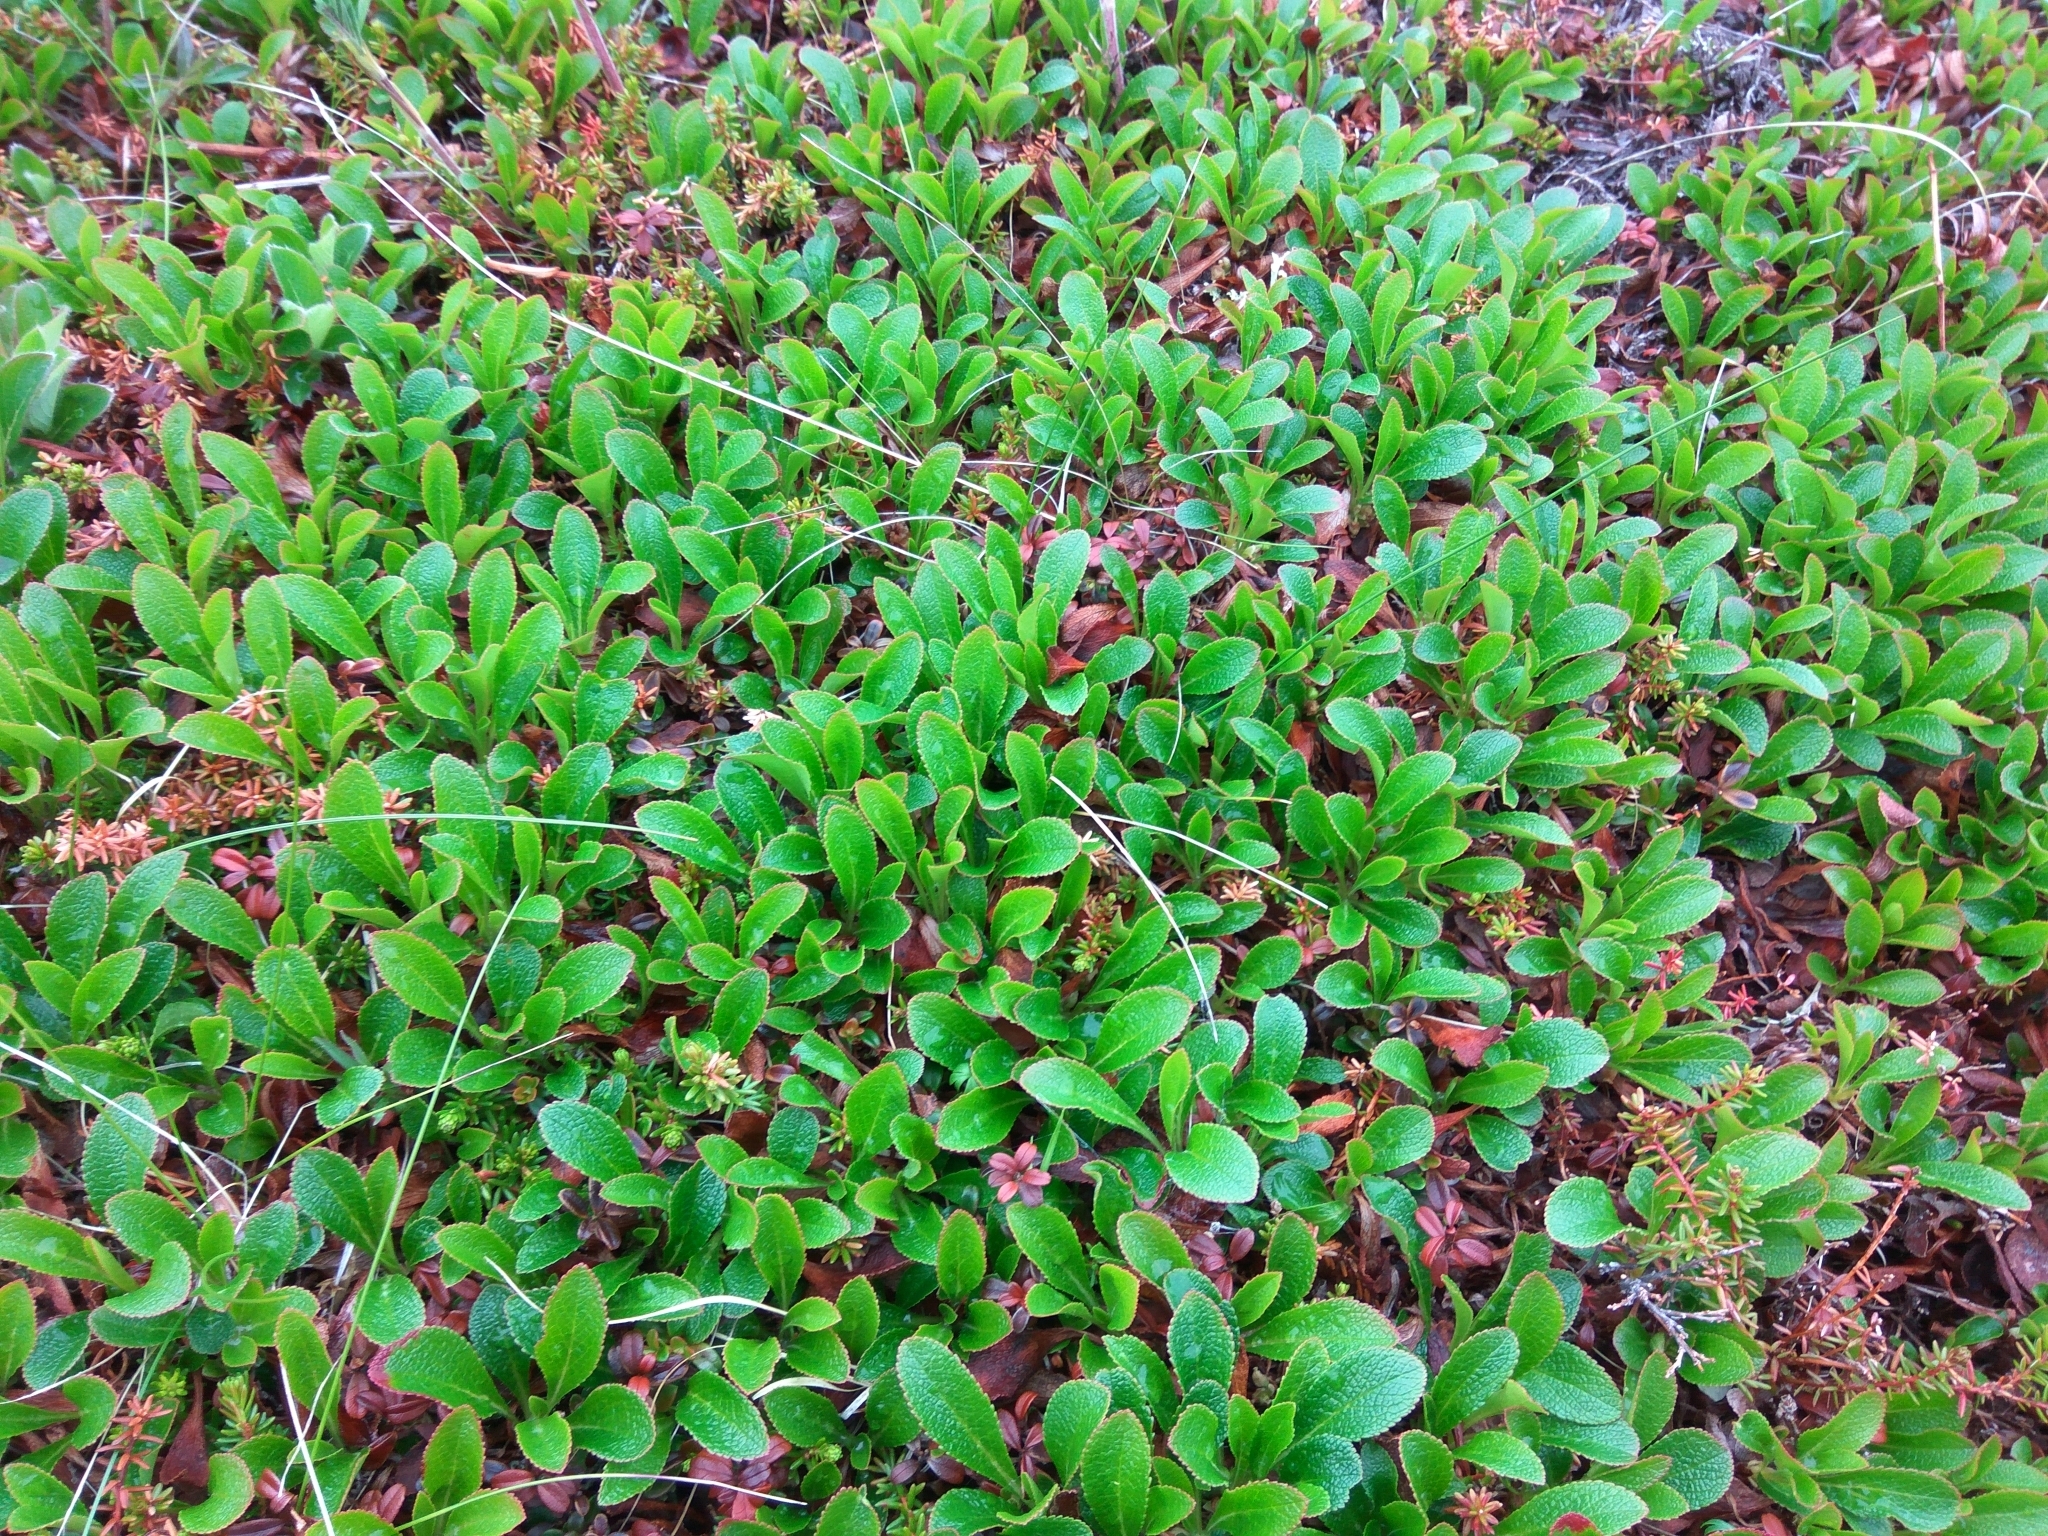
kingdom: Plantae
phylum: Tracheophyta
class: Magnoliopsida
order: Ericales
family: Ericaceae
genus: Arctostaphylos
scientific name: Arctostaphylos alpinus
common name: Alpine bearberry
